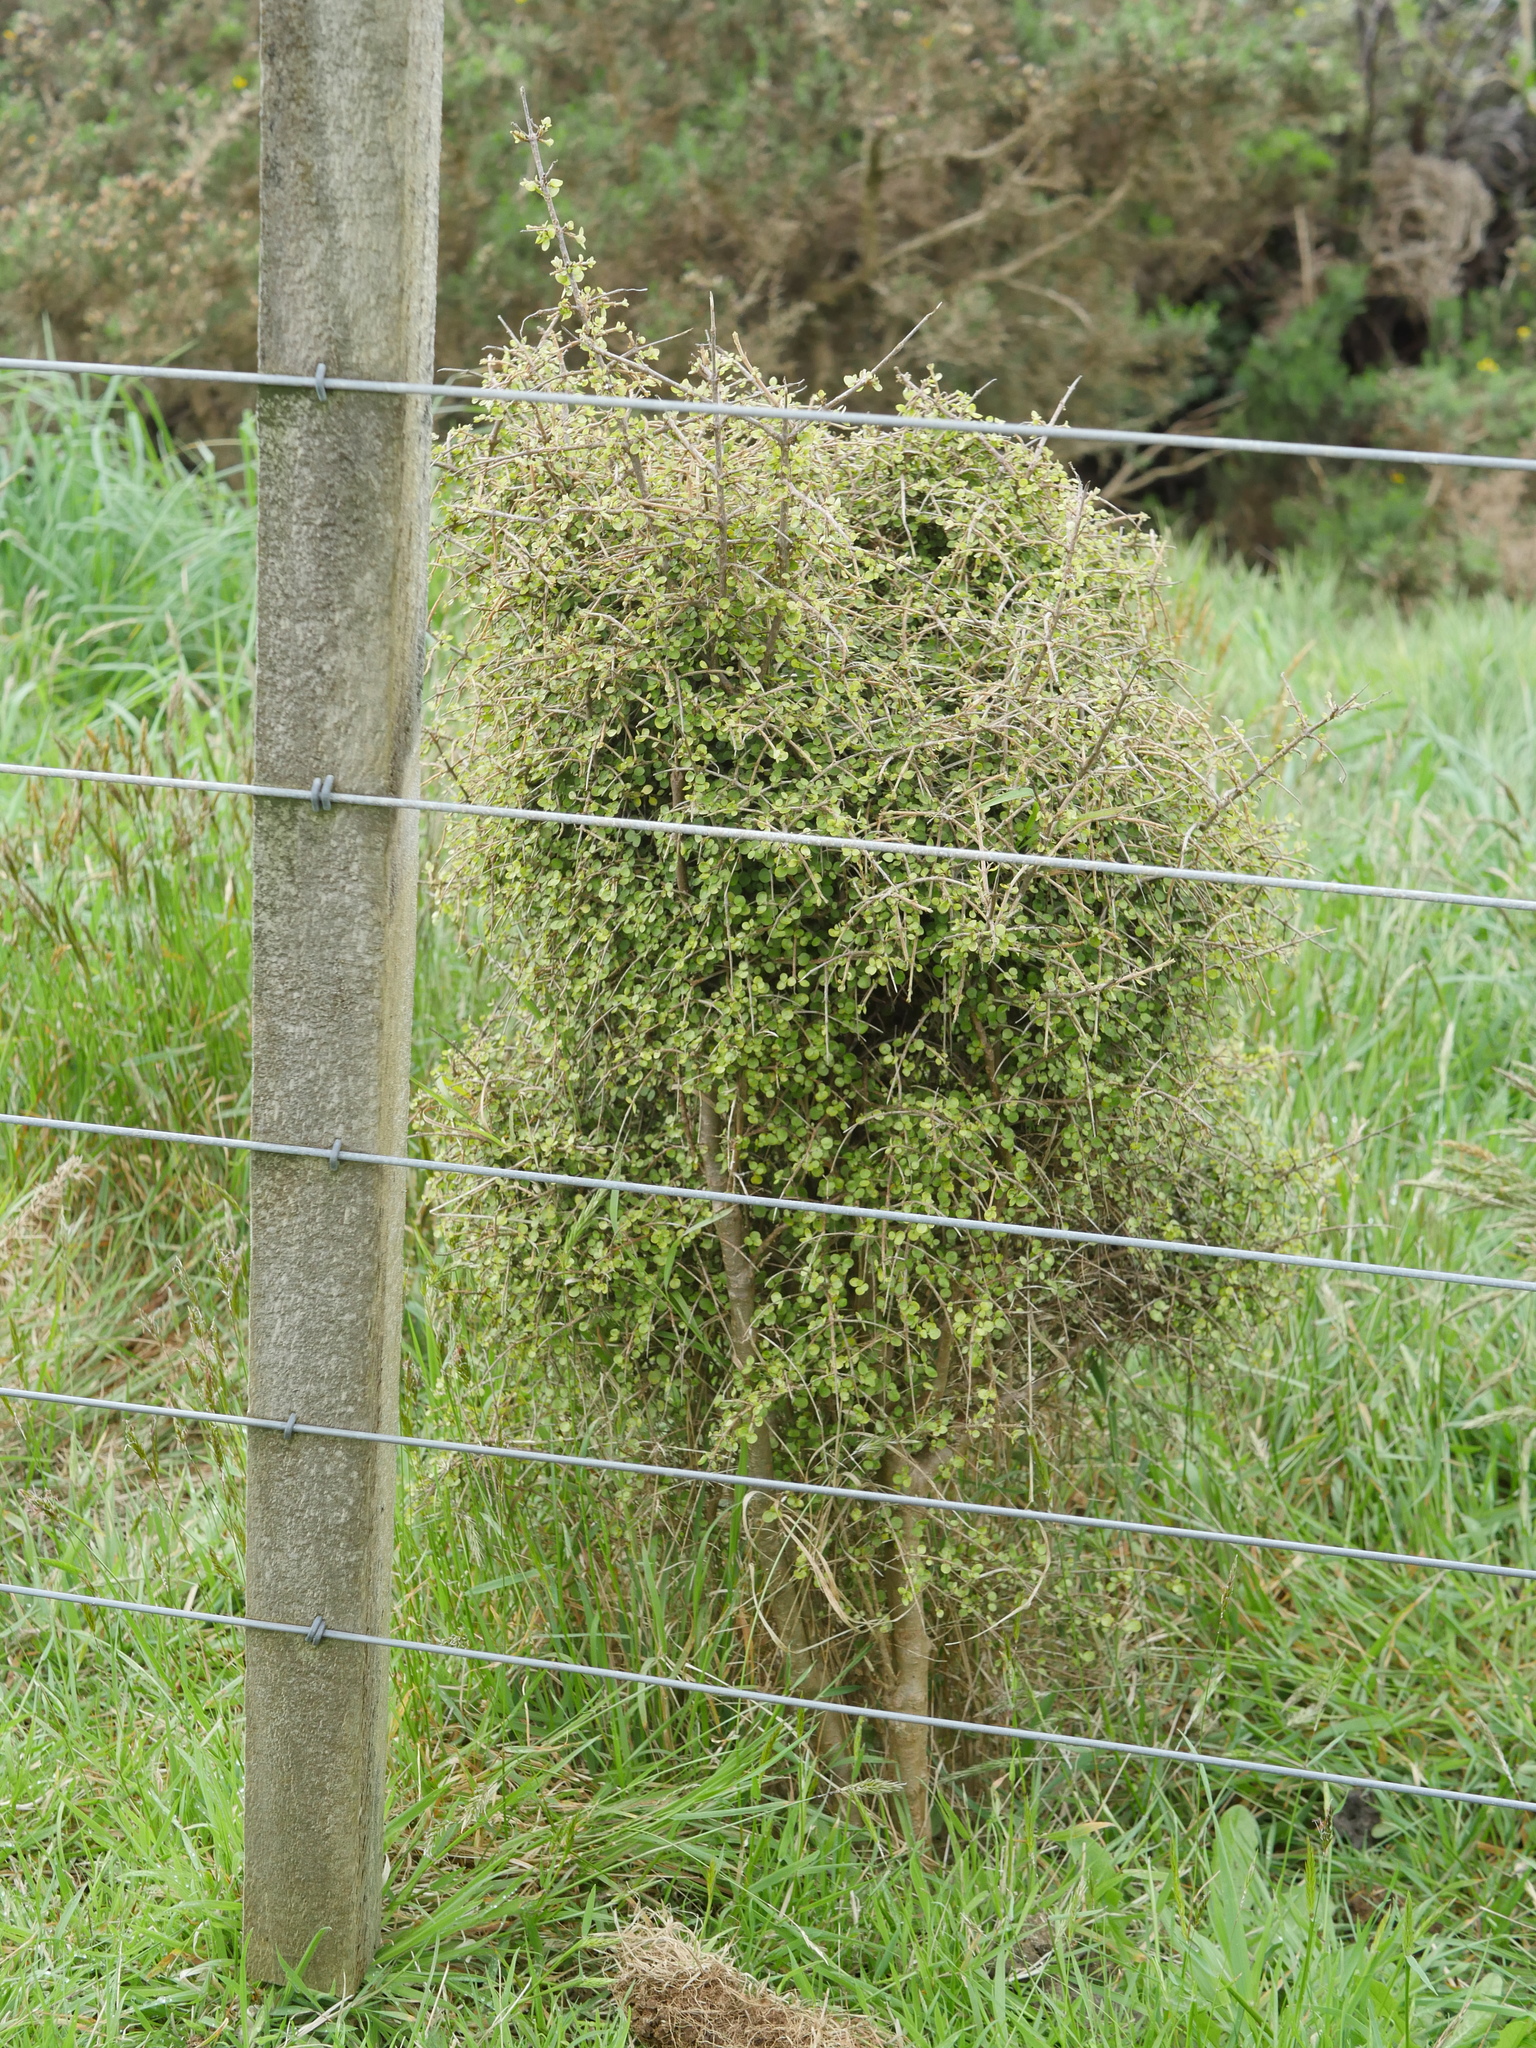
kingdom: Plantae
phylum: Tracheophyta
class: Magnoliopsida
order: Gentianales
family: Rubiaceae
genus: Coprosma
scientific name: Coprosma rhamnoides
